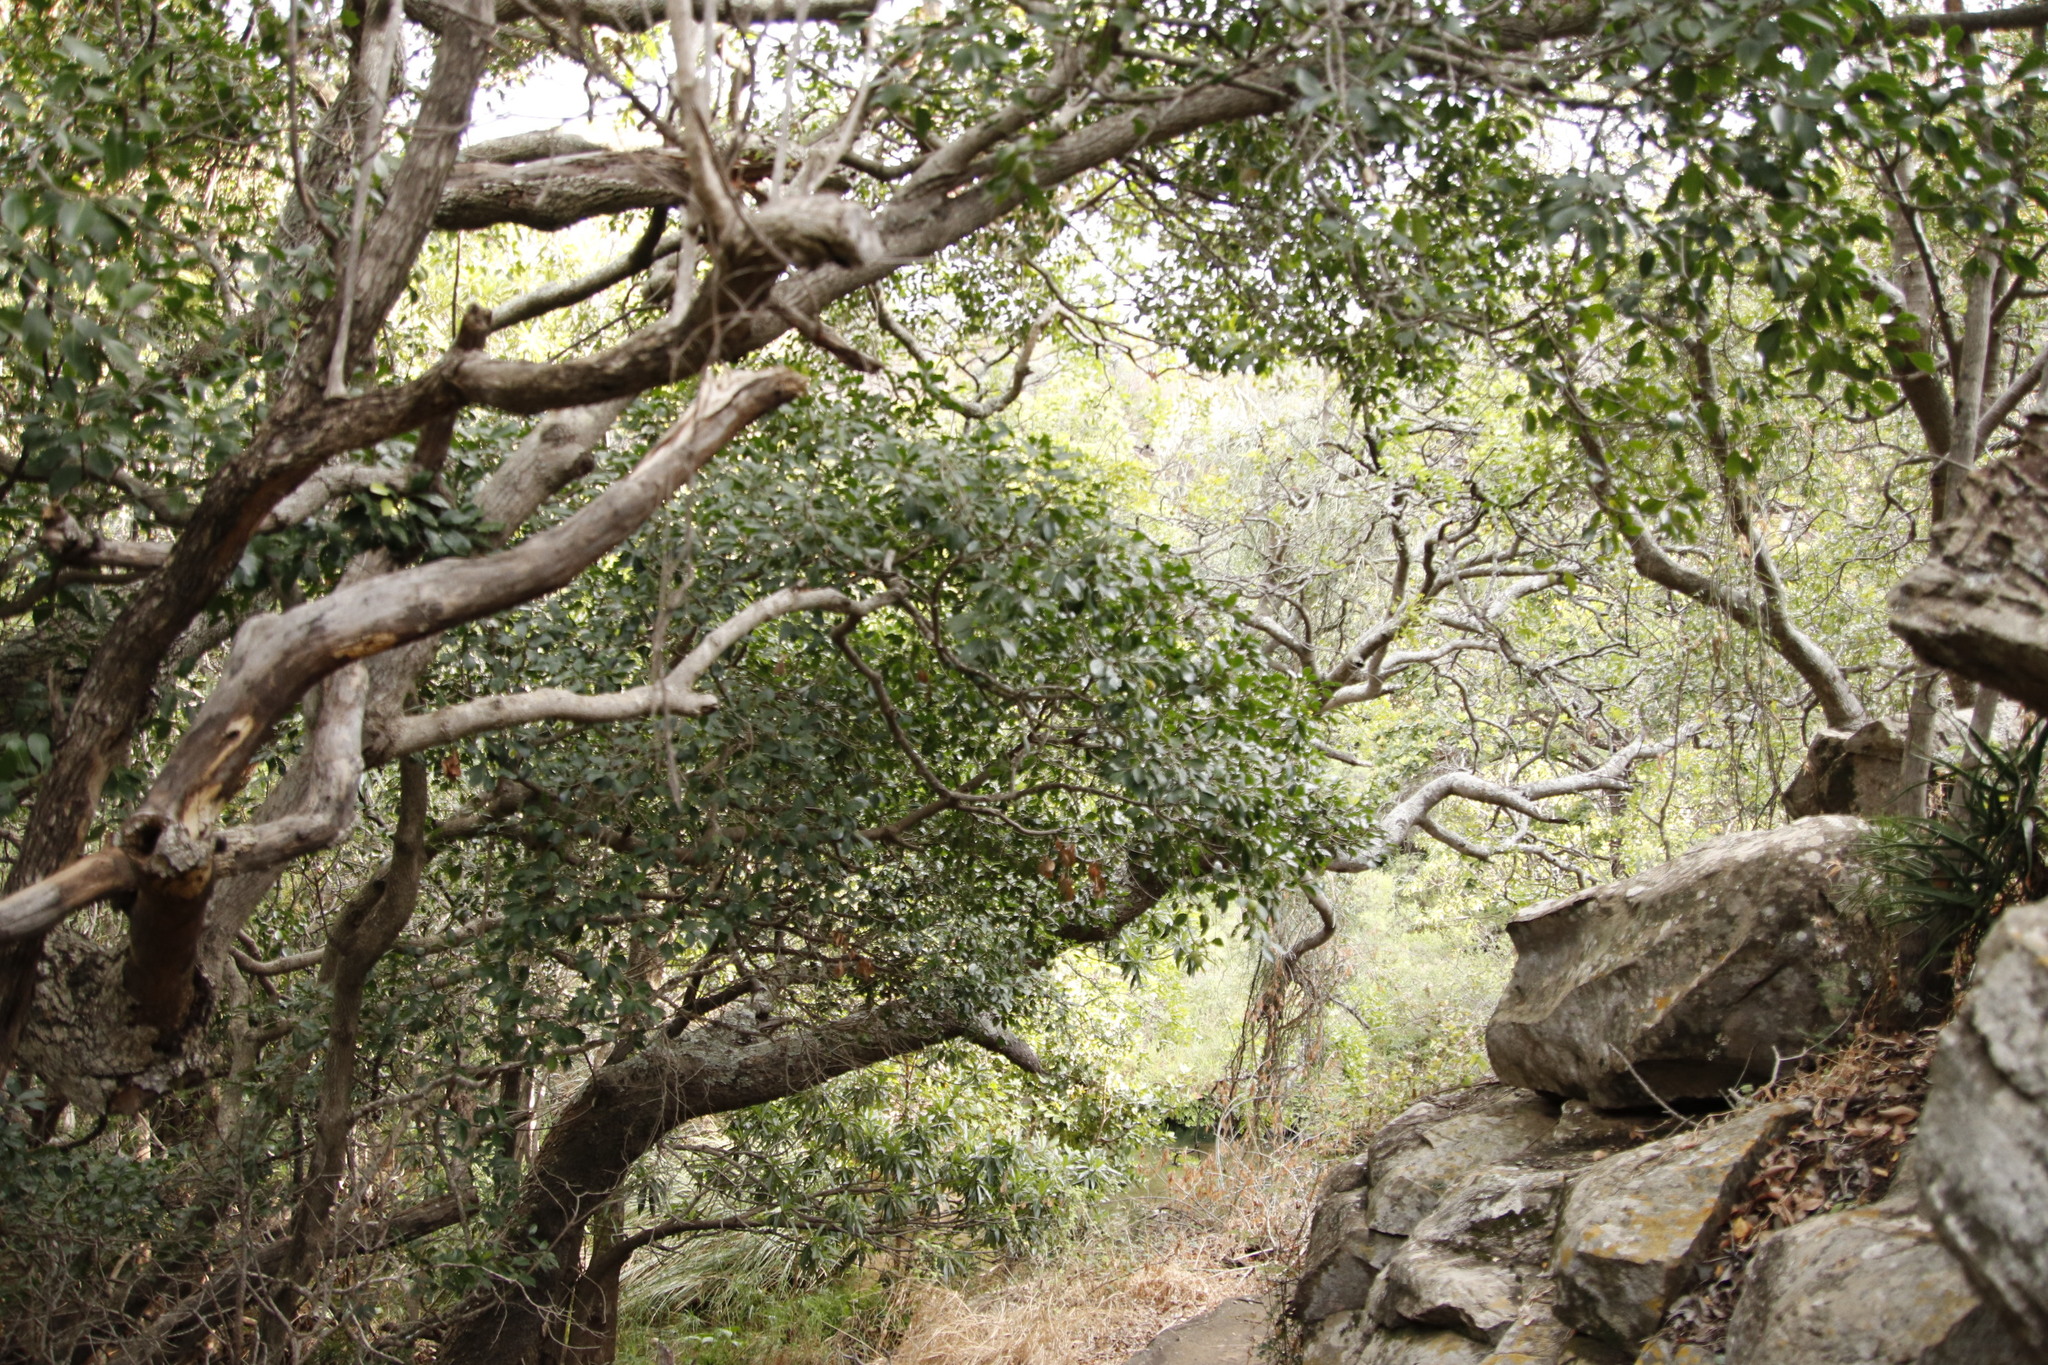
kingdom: Plantae
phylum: Tracheophyta
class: Magnoliopsida
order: Ericales
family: Sapotaceae
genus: Mimusops
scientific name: Mimusops zeyheri
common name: Transvaal red milkwood
